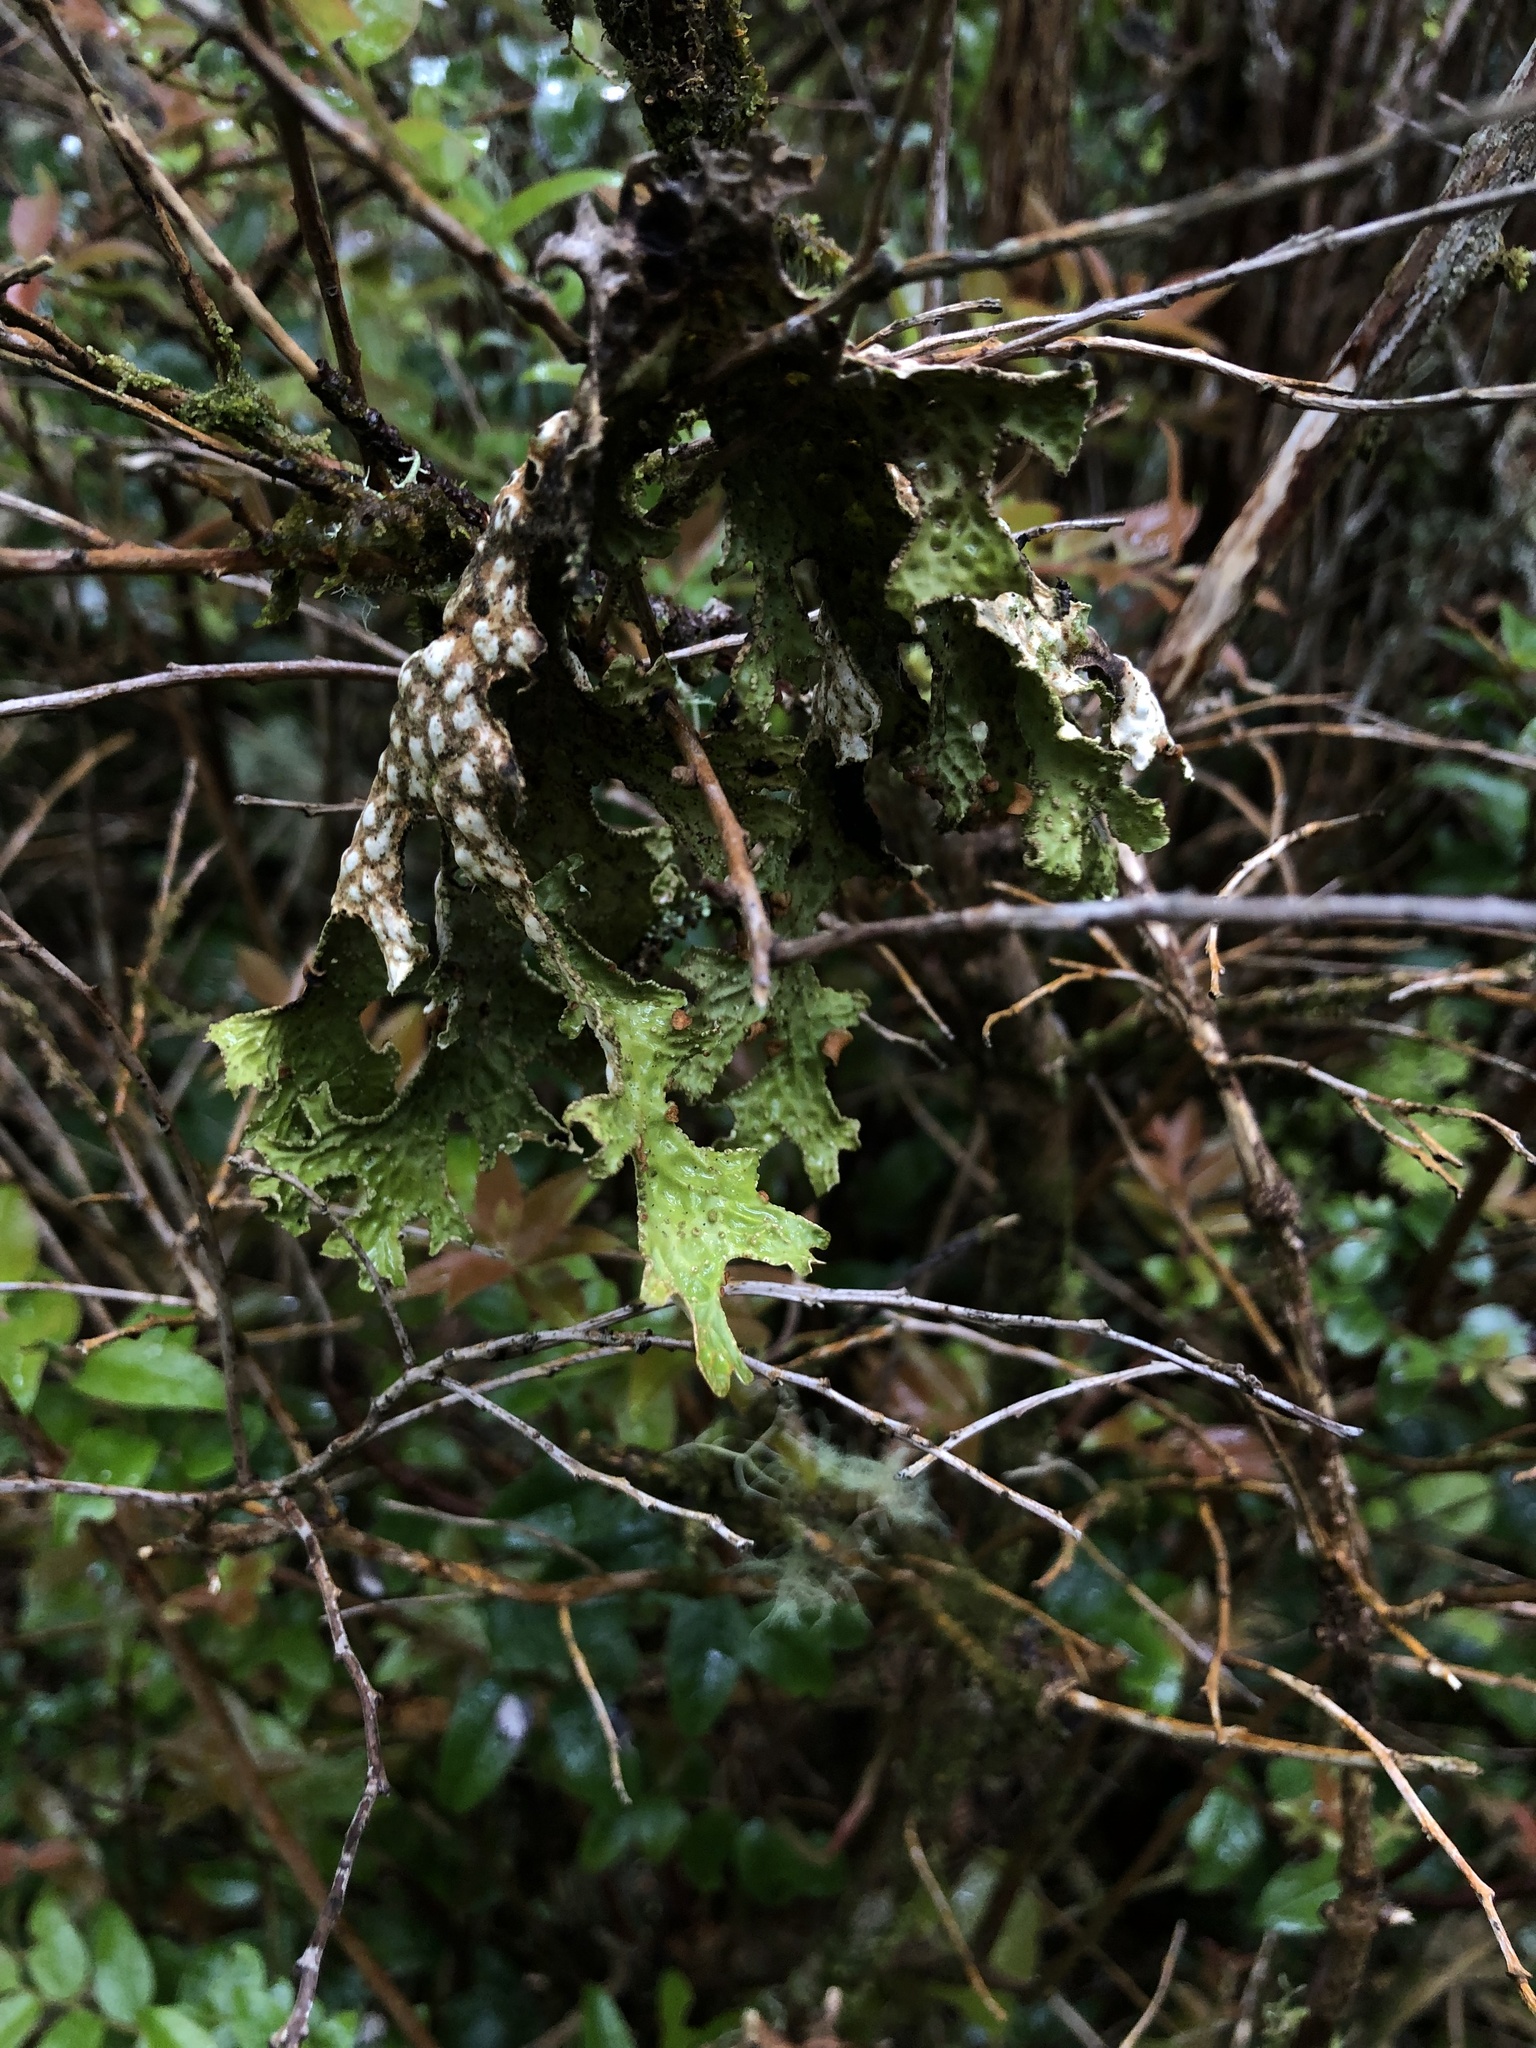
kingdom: Fungi
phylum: Ascomycota
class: Lecanoromycetes
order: Peltigerales
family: Lobariaceae
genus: Lobaria
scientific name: Lobaria pulmonaria
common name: Lungwort
